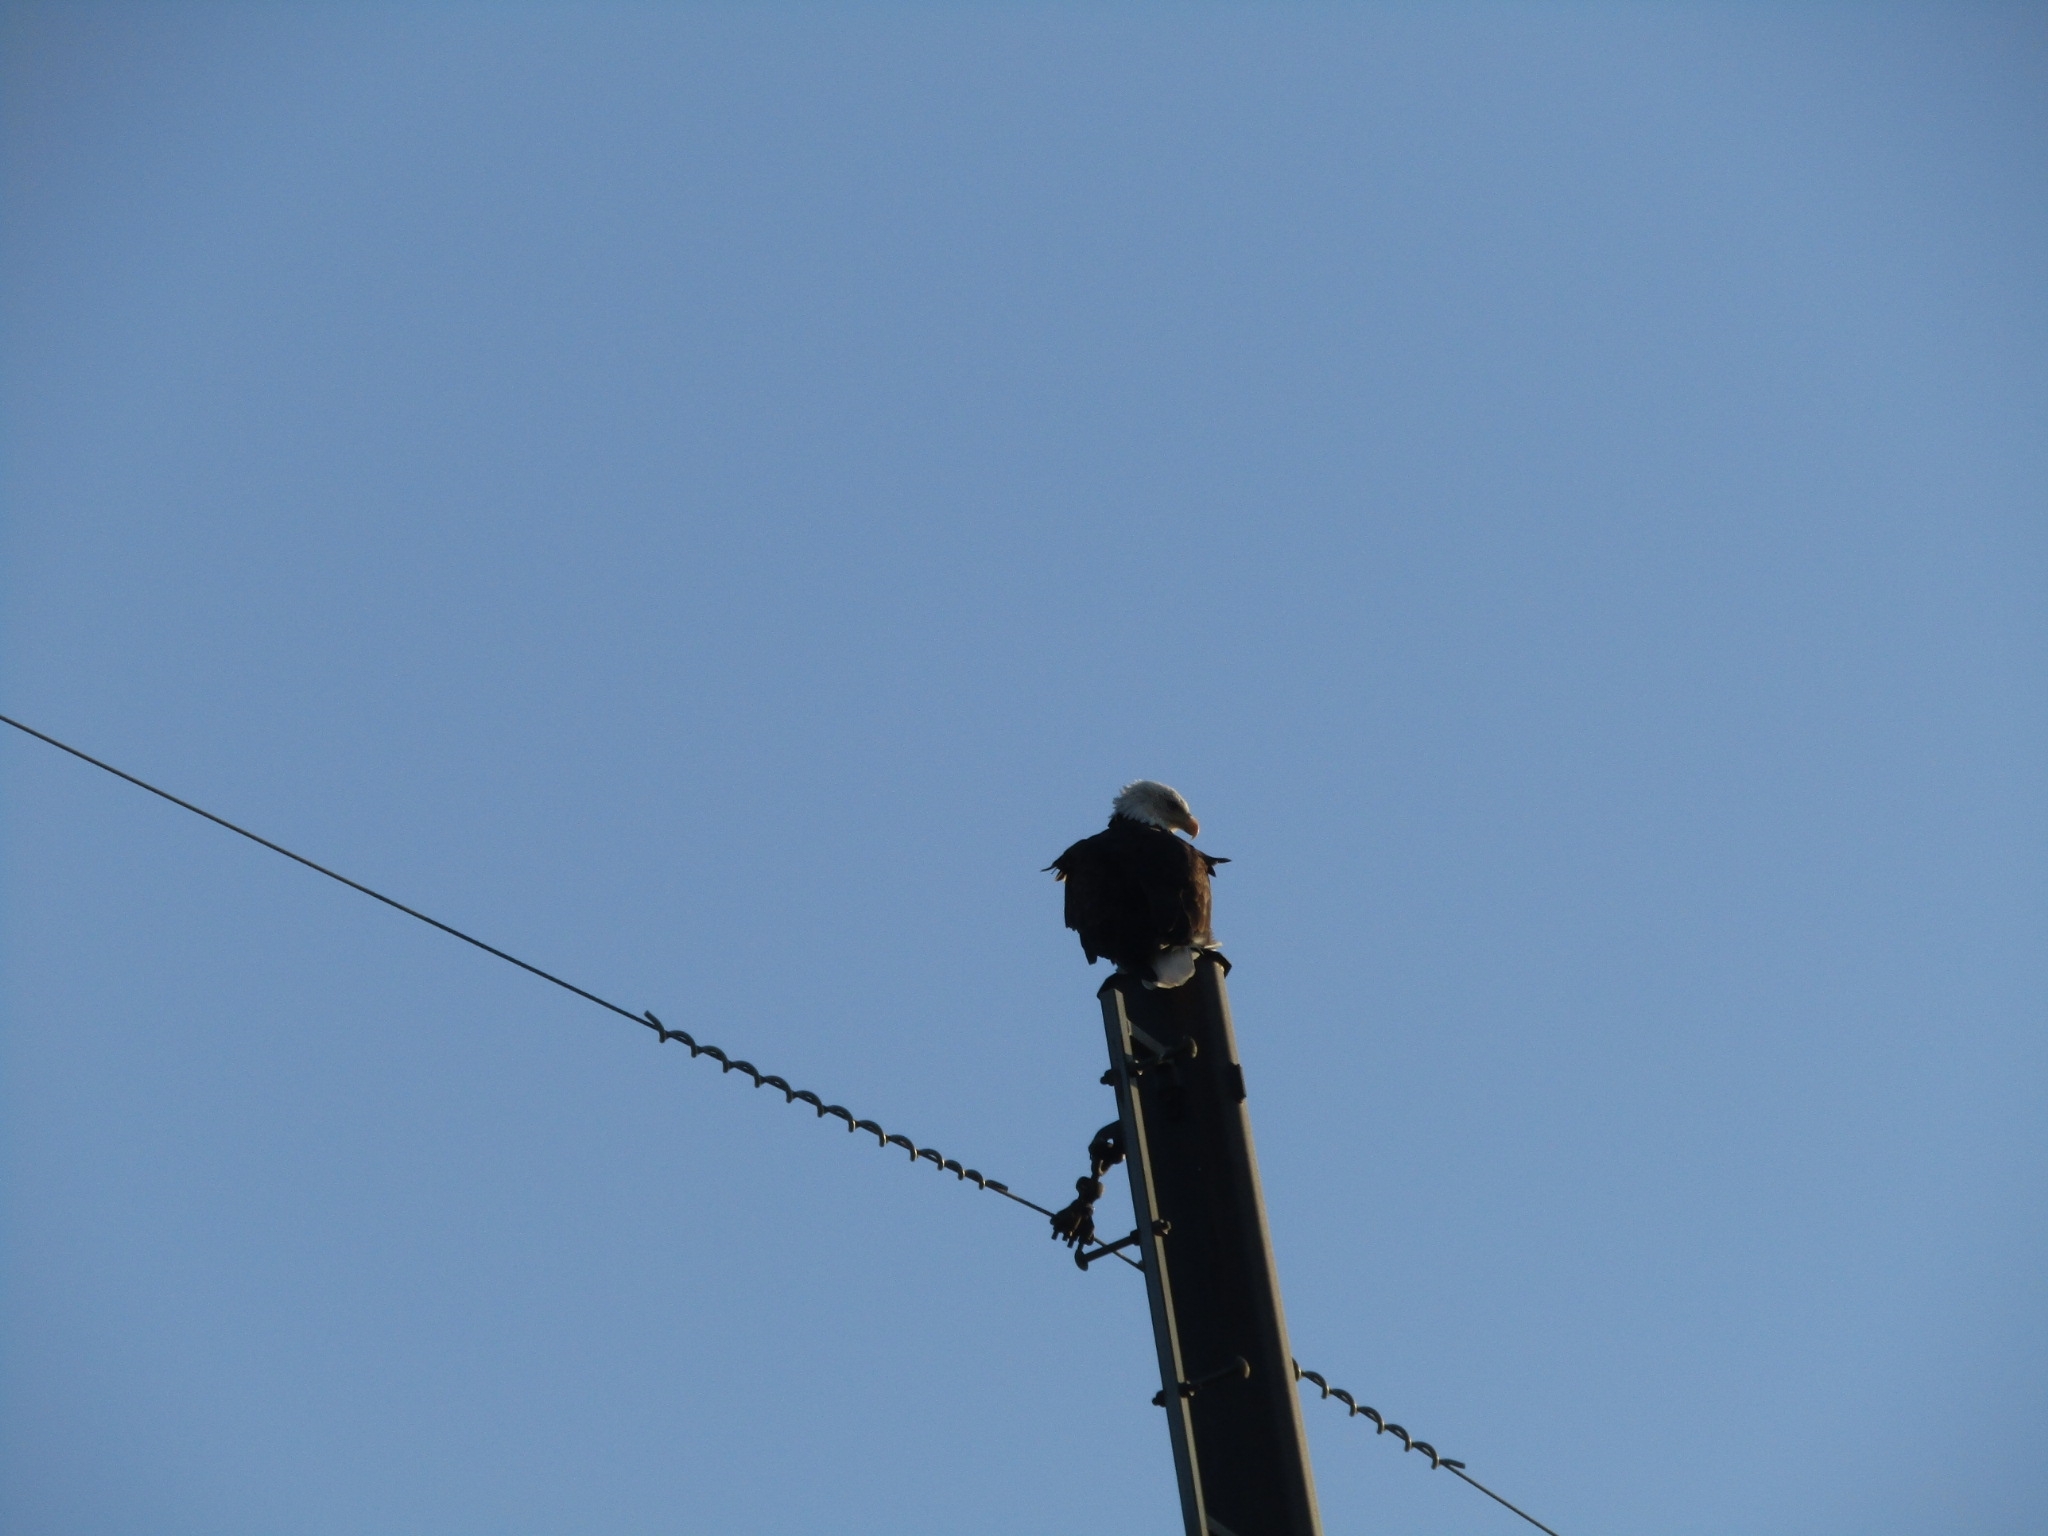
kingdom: Animalia
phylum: Chordata
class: Aves
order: Accipitriformes
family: Accipitridae
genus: Haliaeetus
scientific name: Haliaeetus leucocephalus
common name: Bald eagle
